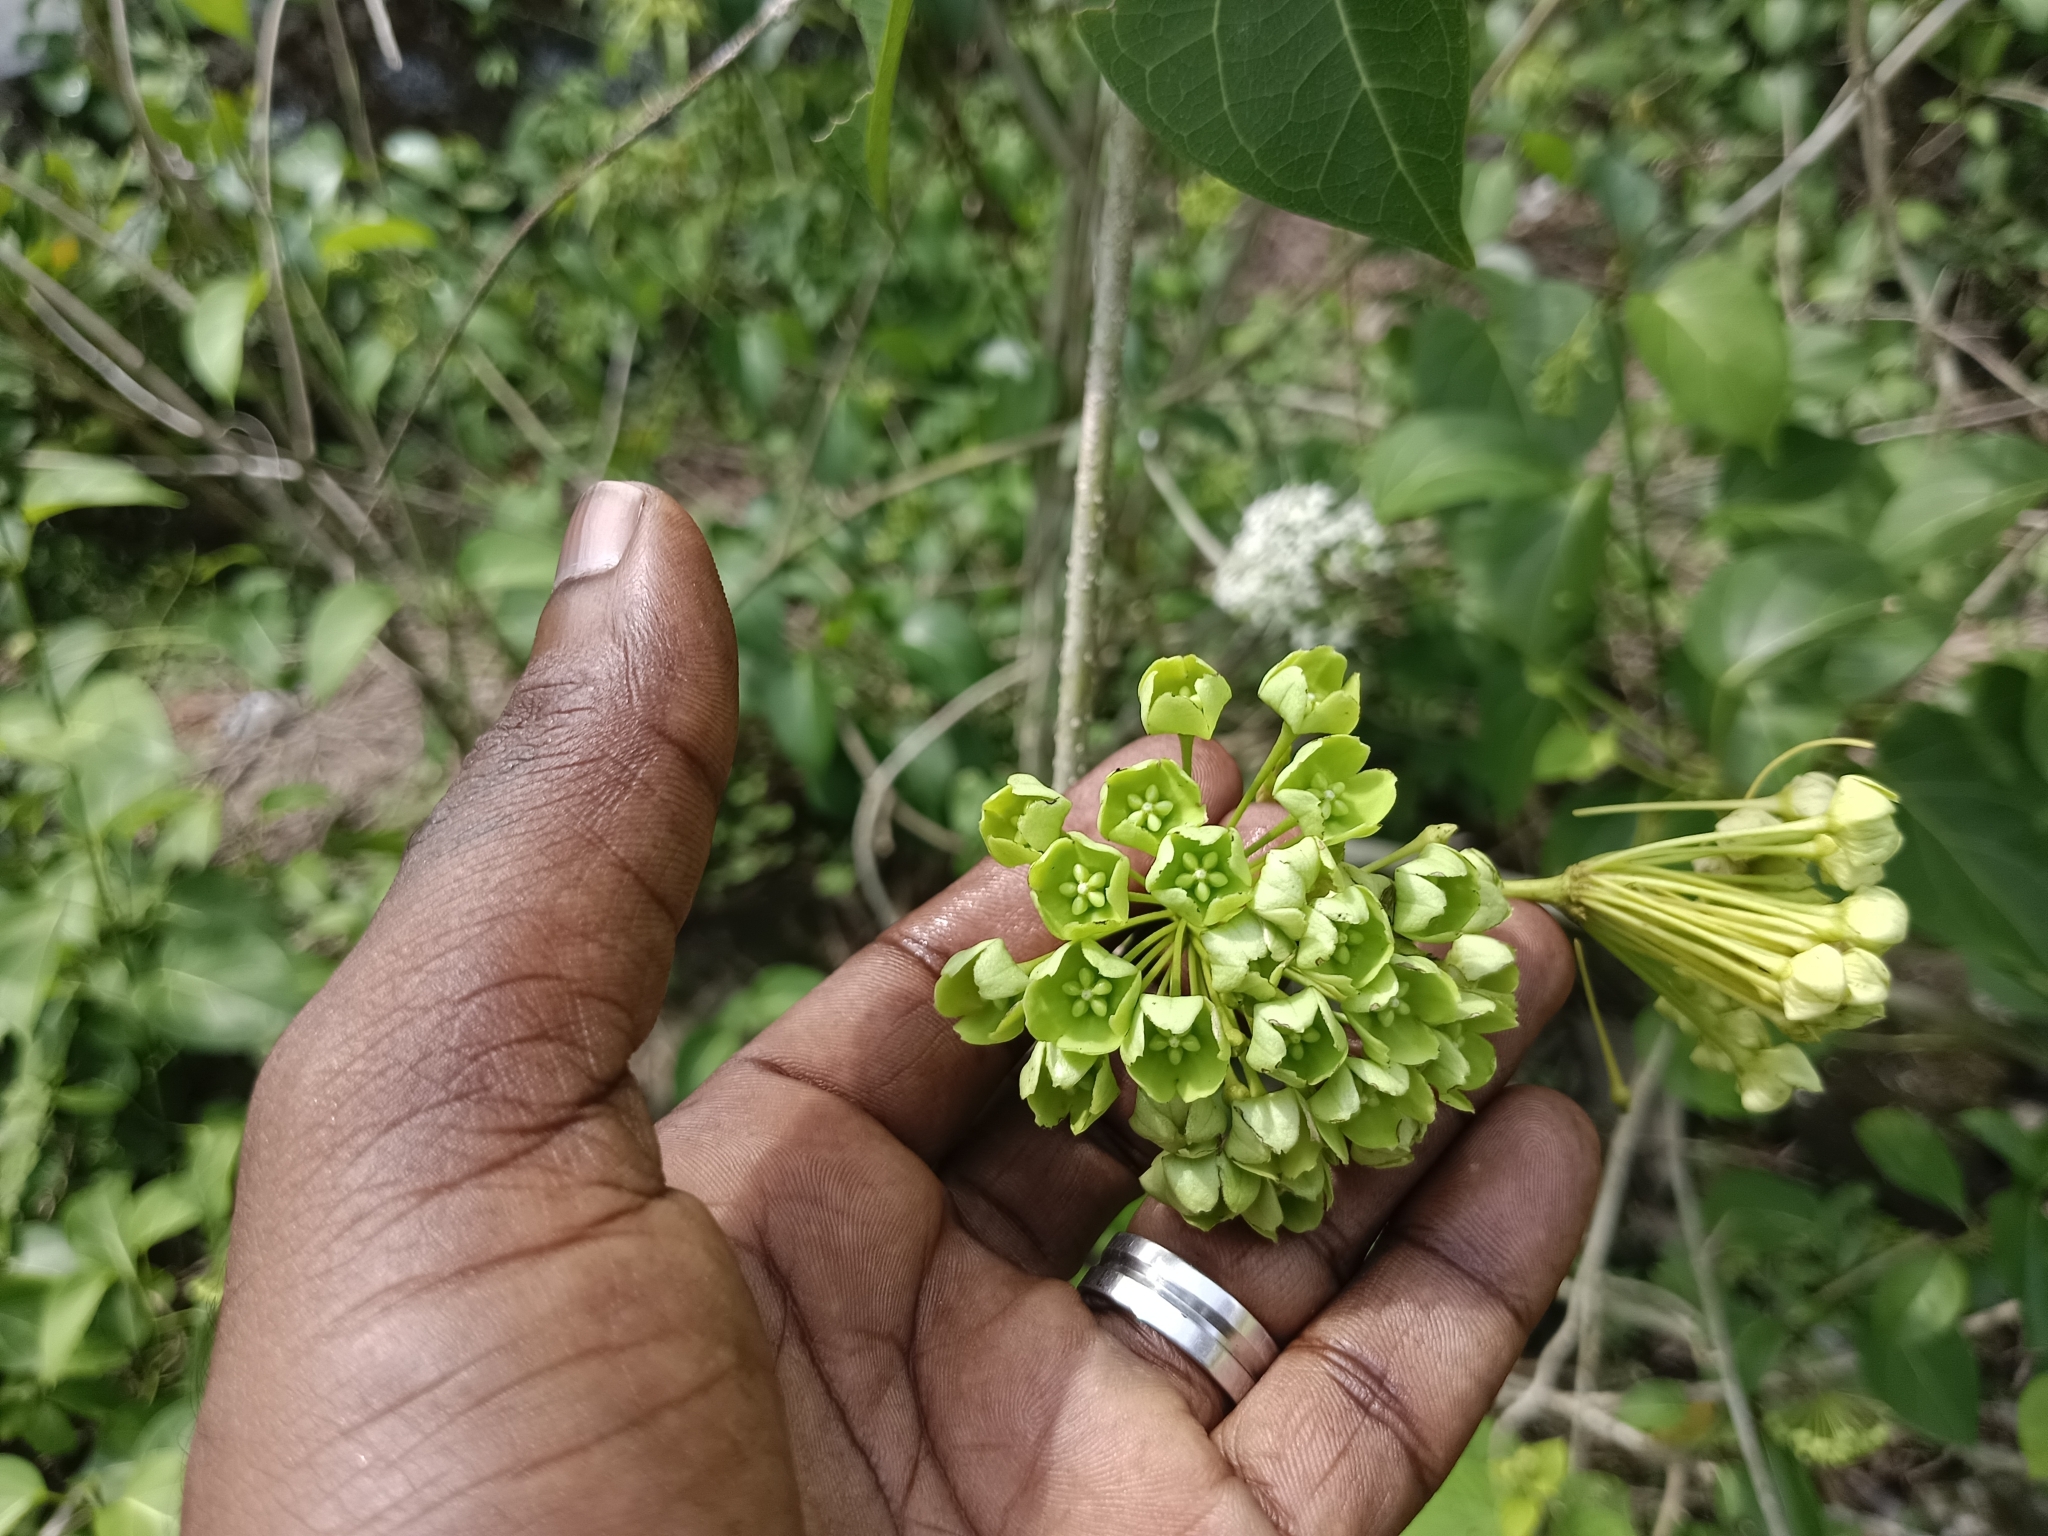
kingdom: Plantae
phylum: Tracheophyta
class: Magnoliopsida
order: Gentianales
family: Apocynaceae
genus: Stephanotis
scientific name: Stephanotis volubilis
